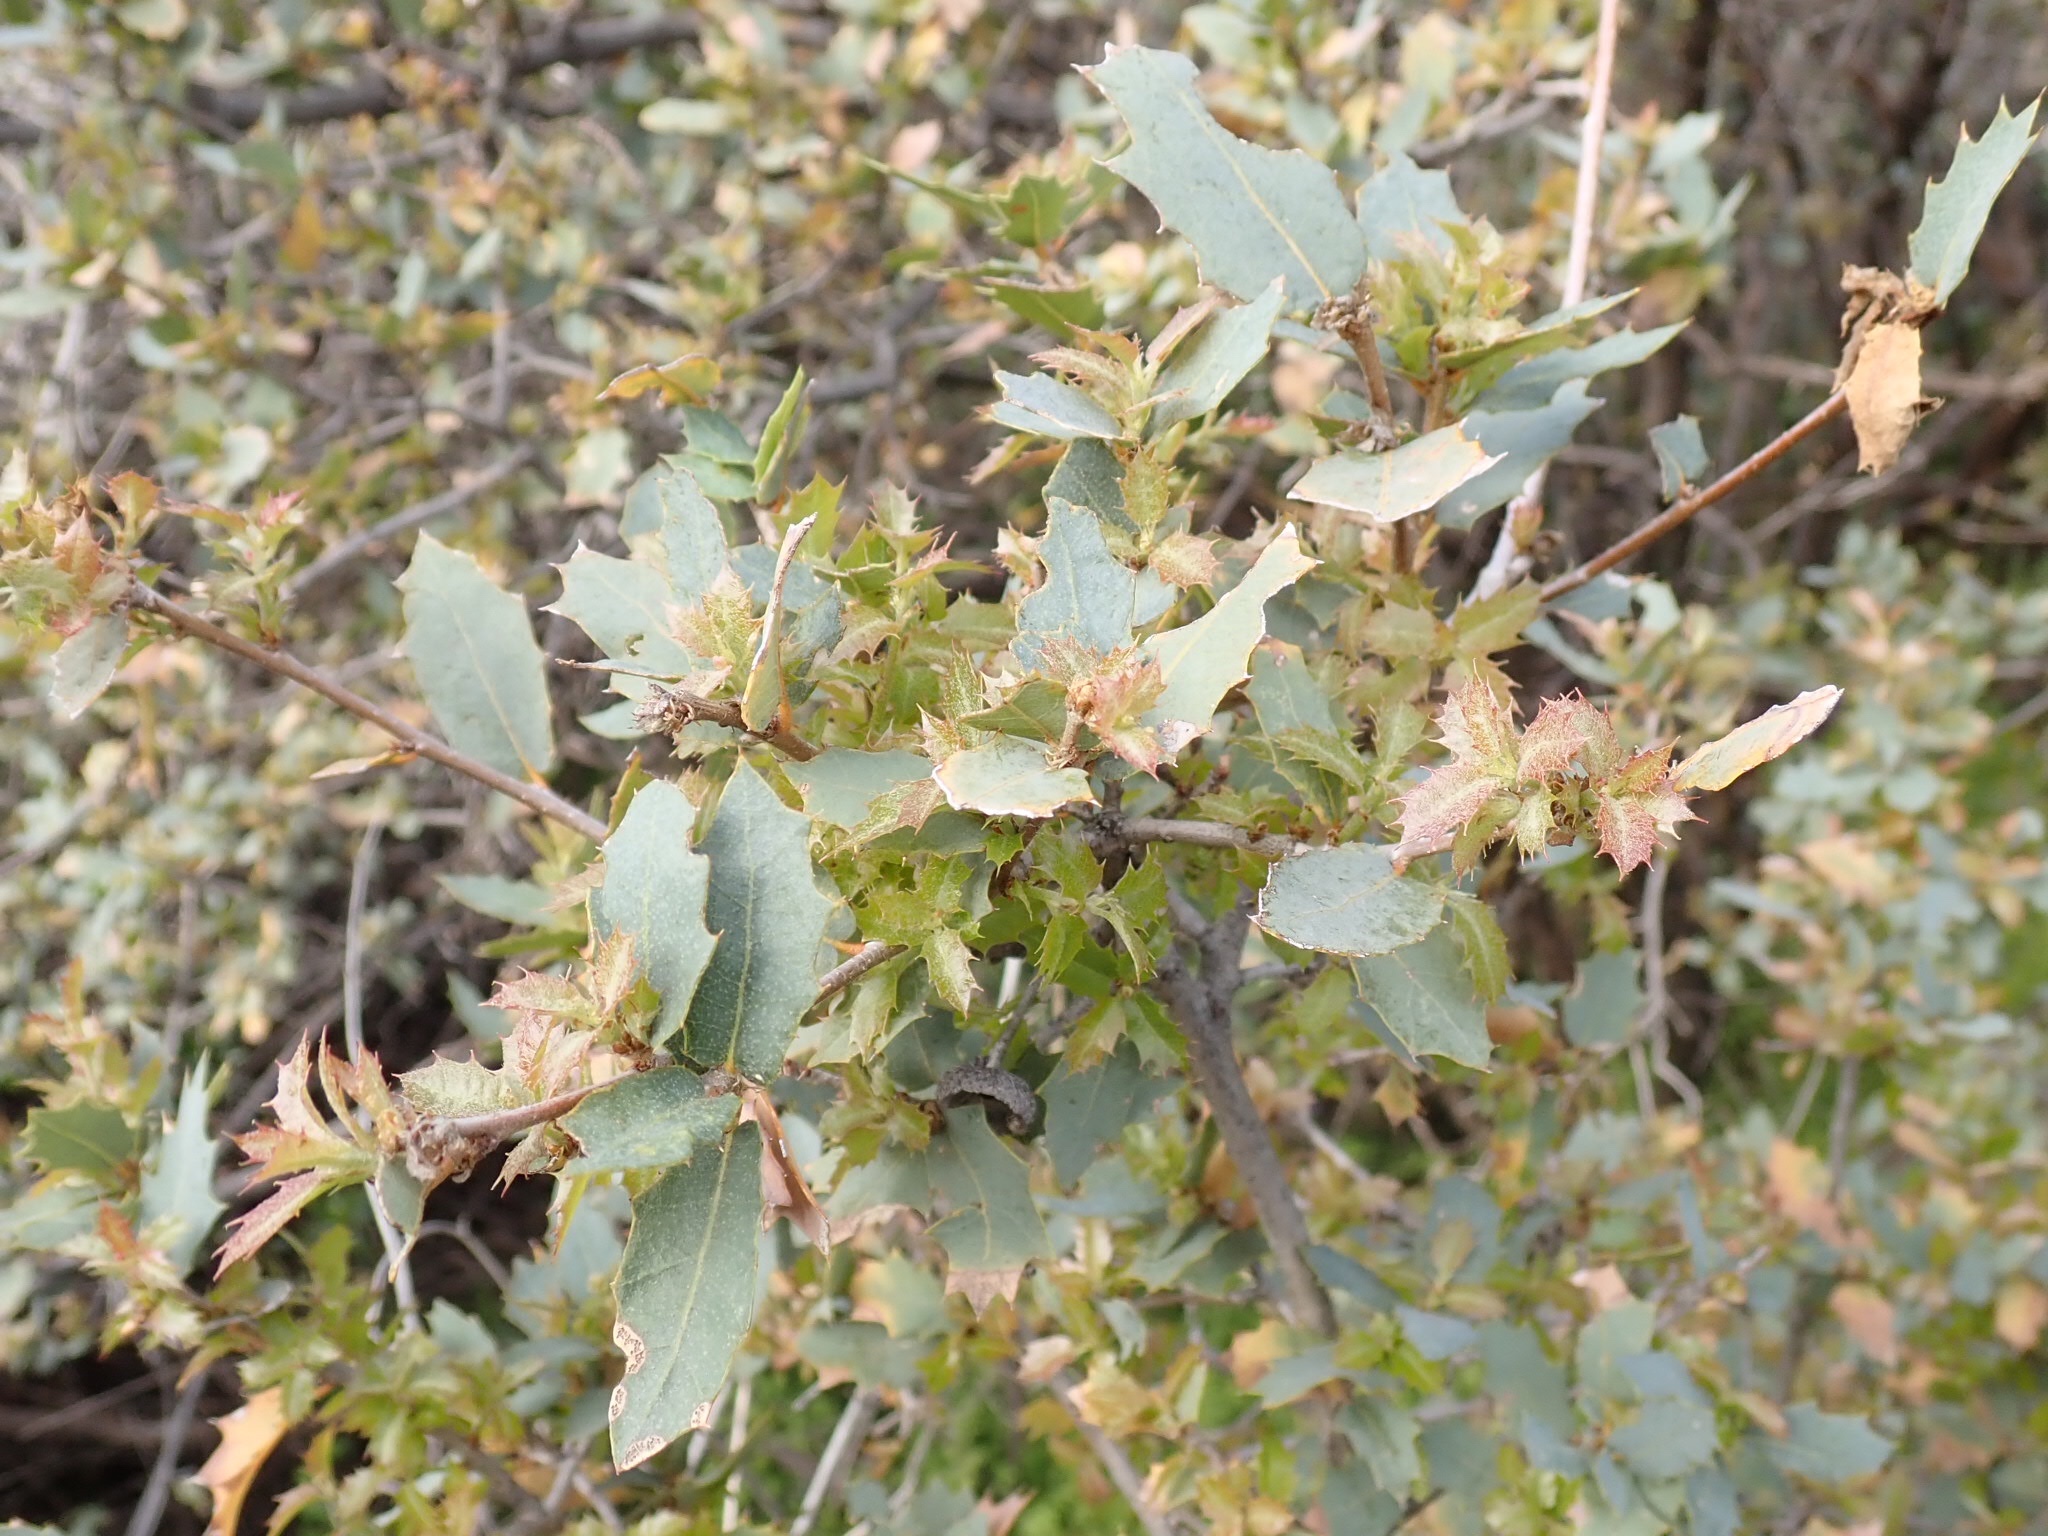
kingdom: Plantae
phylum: Tracheophyta
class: Magnoliopsida
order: Fagales
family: Fagaceae
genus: Quercus
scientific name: Quercus turbinella
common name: Sonoran scrub oak
